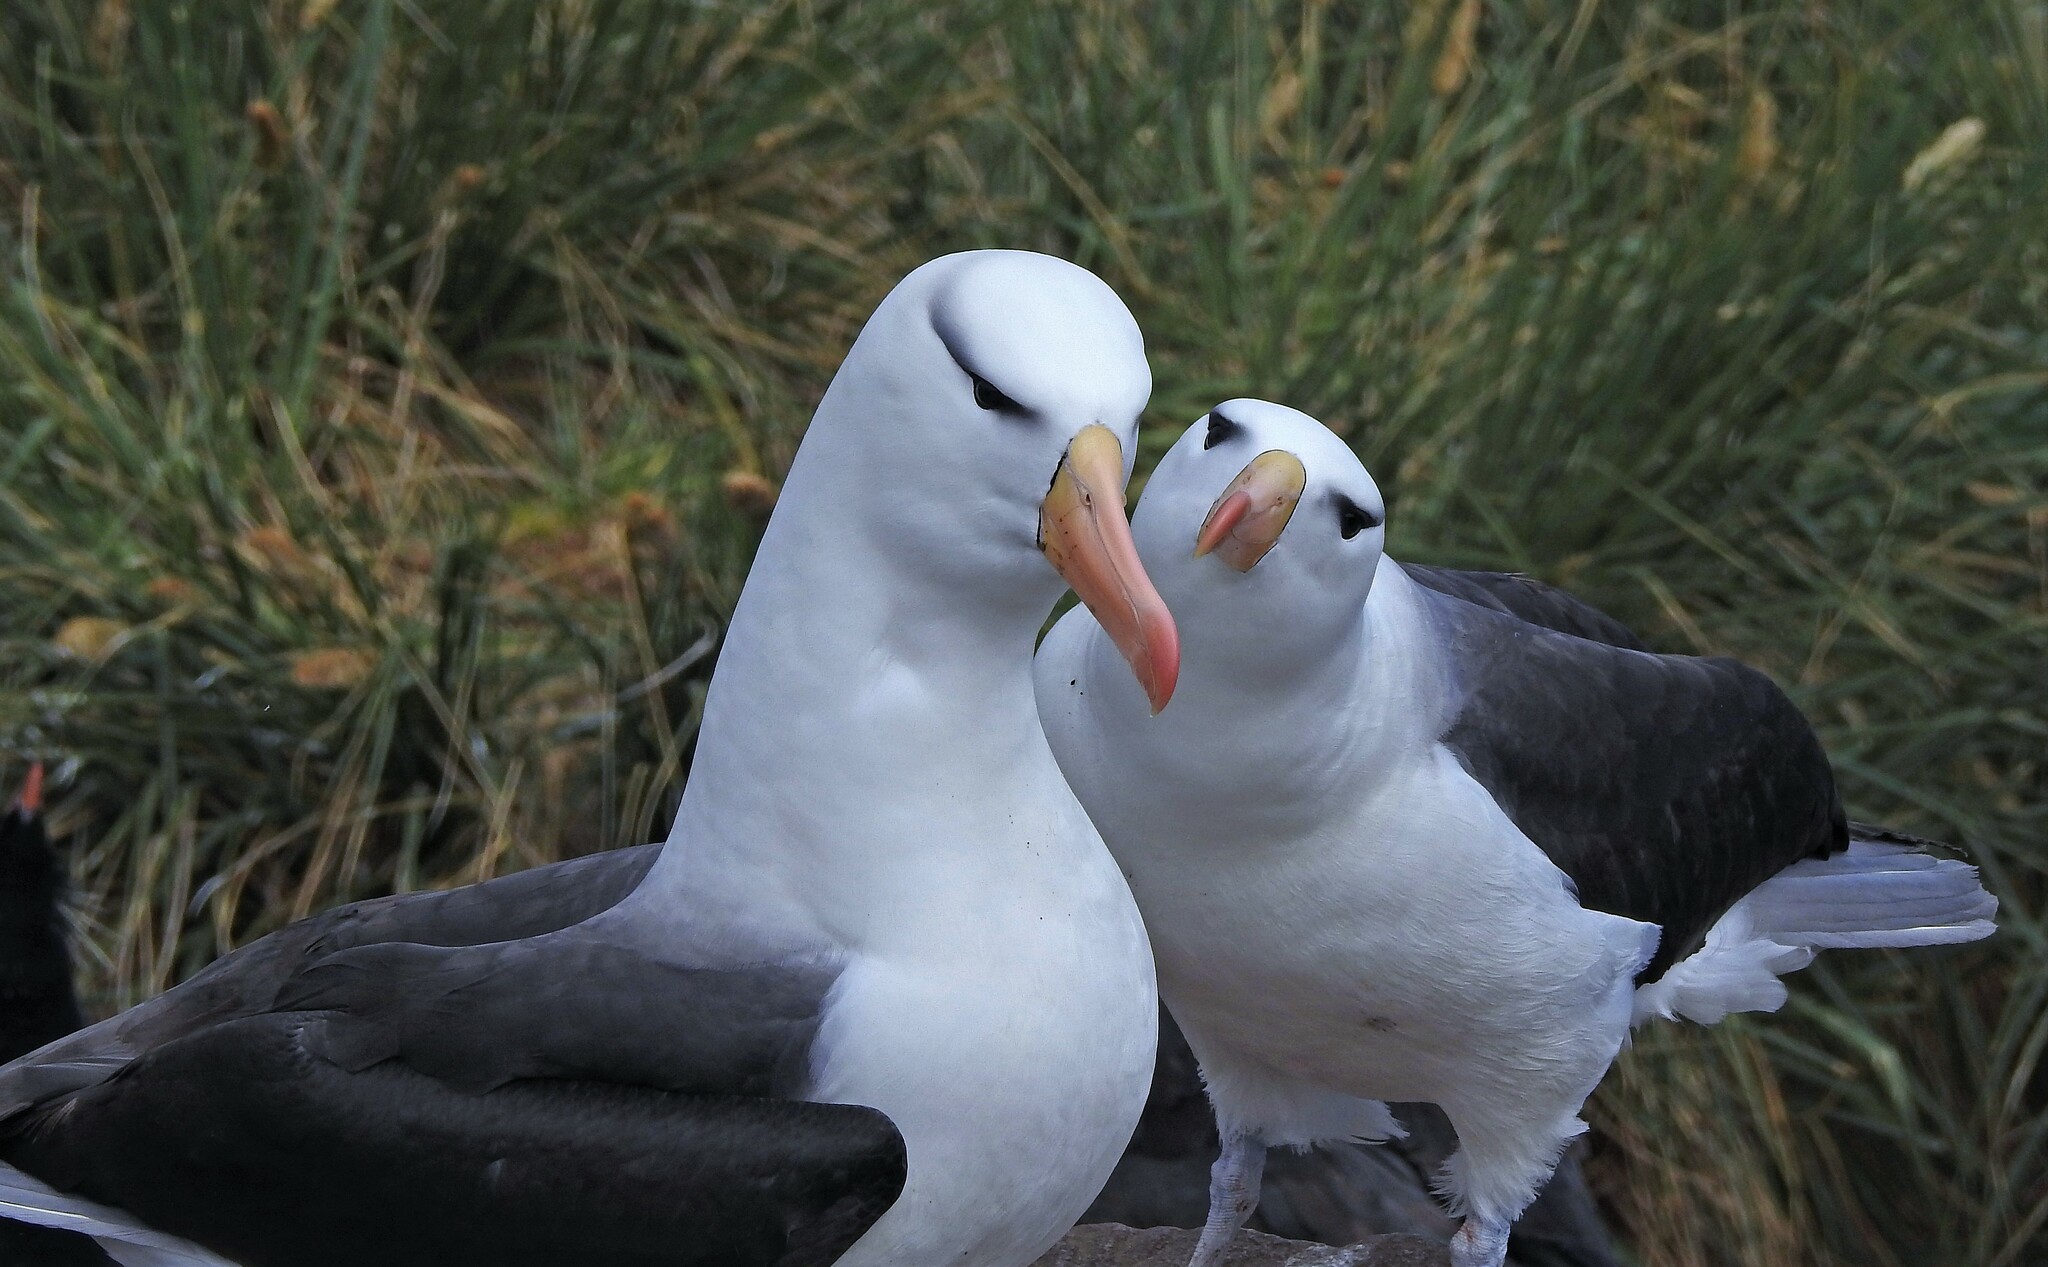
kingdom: Animalia
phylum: Chordata
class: Aves
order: Procellariiformes
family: Diomedeidae
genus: Thalassarche
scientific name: Thalassarche melanophris
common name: Black-browed albatross
